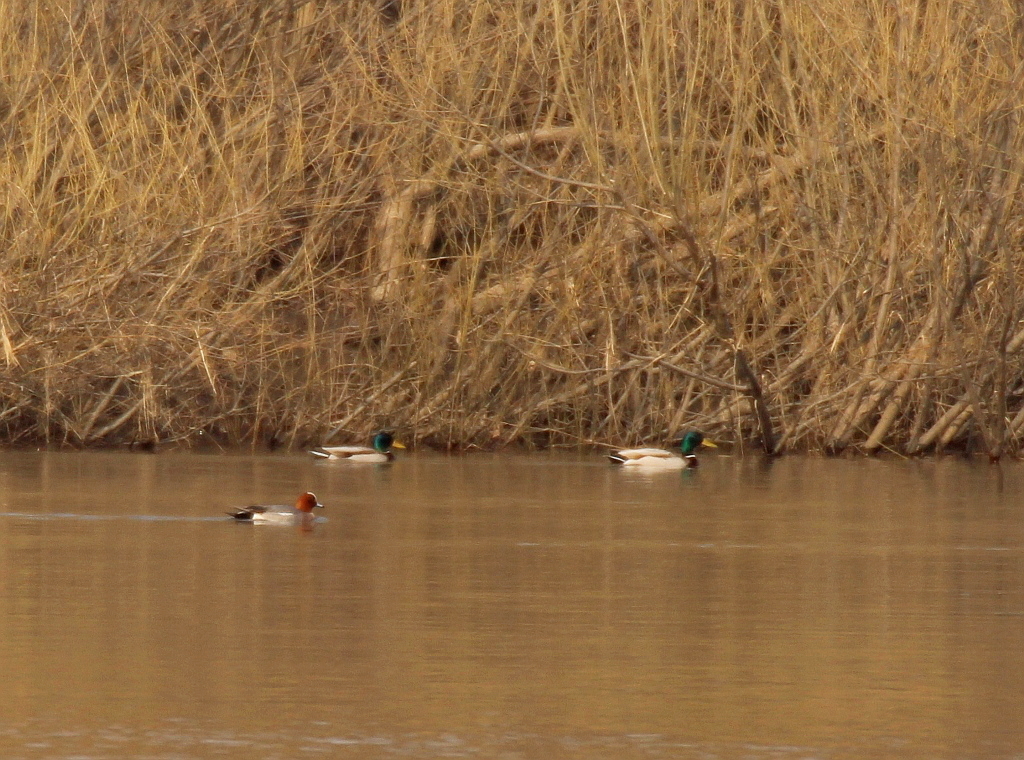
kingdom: Animalia
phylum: Chordata
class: Aves
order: Anseriformes
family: Anatidae
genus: Anas
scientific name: Anas platyrhynchos
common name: Mallard
